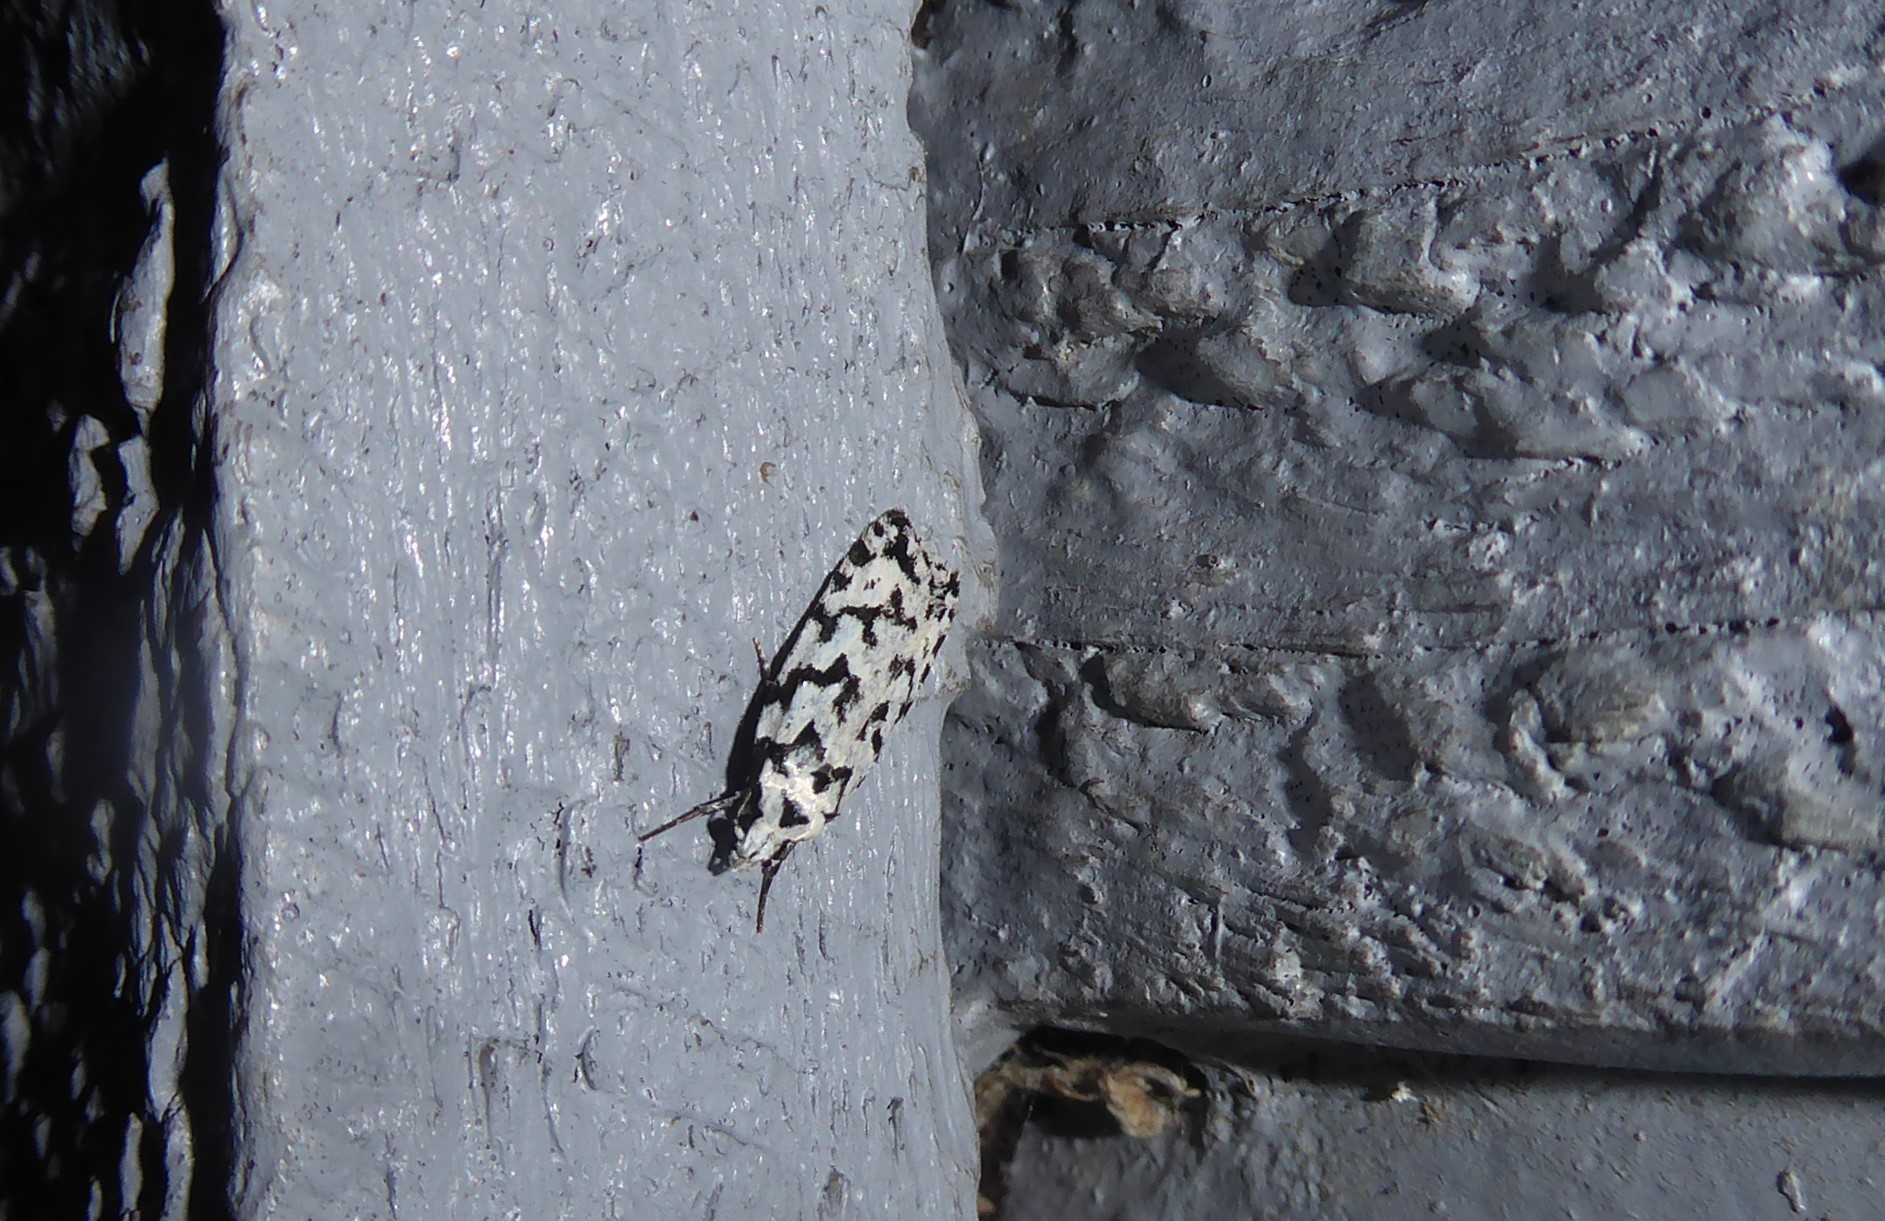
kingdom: Animalia
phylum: Arthropoda
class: Insecta
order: Lepidoptera
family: Oecophoridae
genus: Izatha
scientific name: Izatha katadiktya
